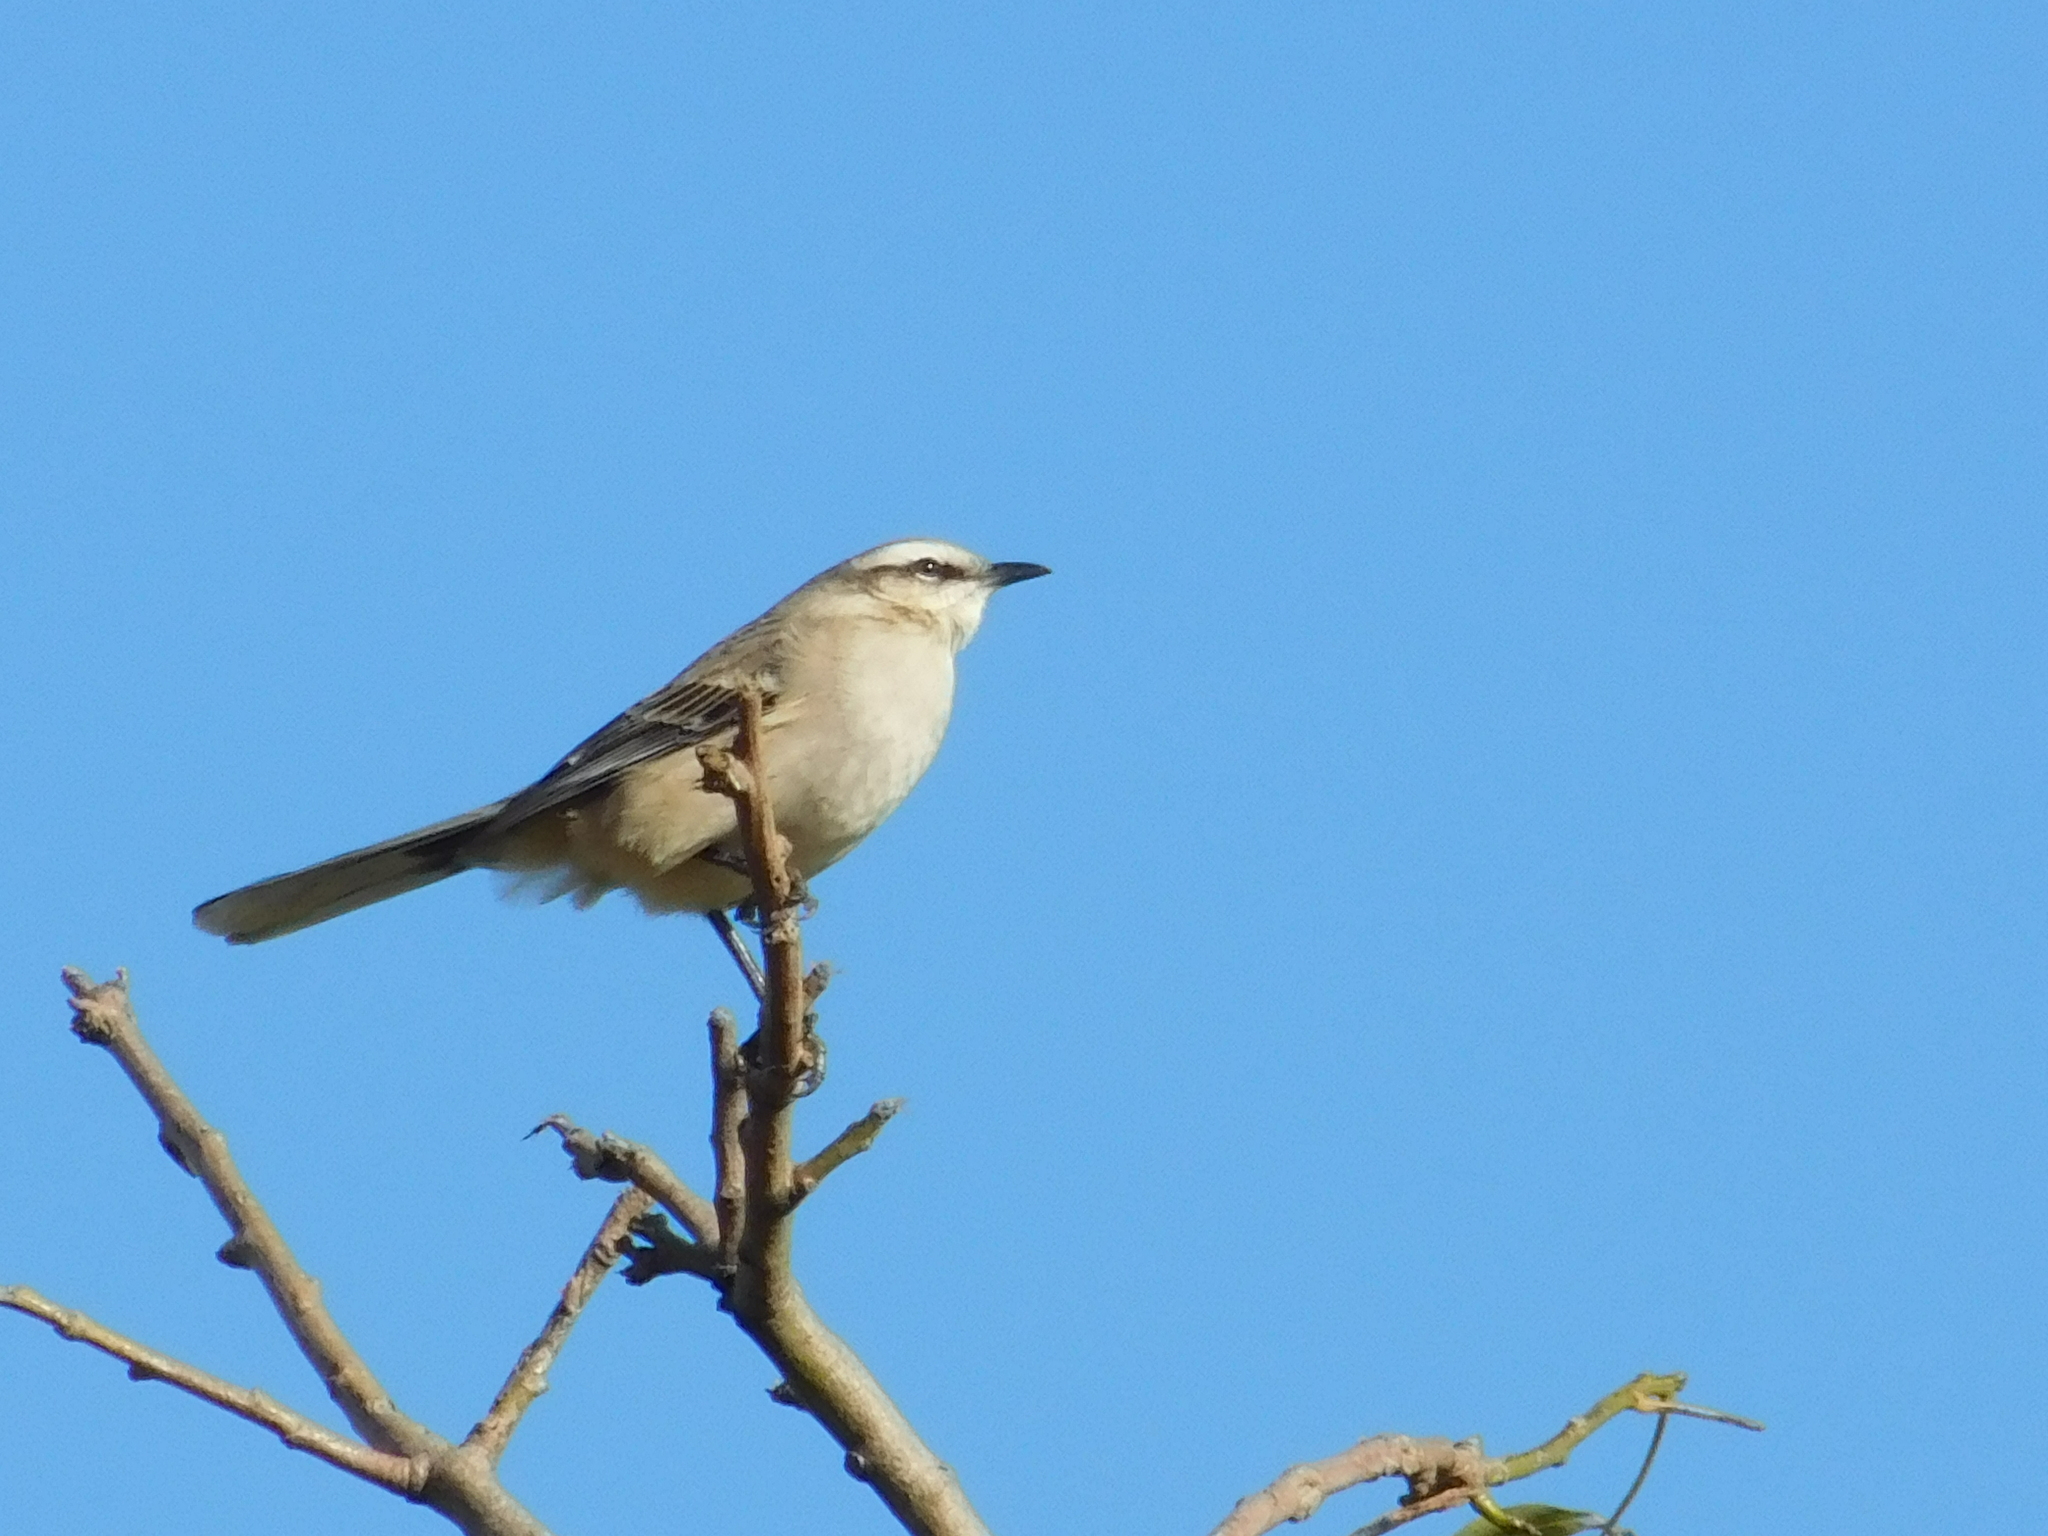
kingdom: Animalia
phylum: Chordata
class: Aves
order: Passeriformes
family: Mimidae
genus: Mimus
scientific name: Mimus saturninus
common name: Chalk-browed mockingbird
